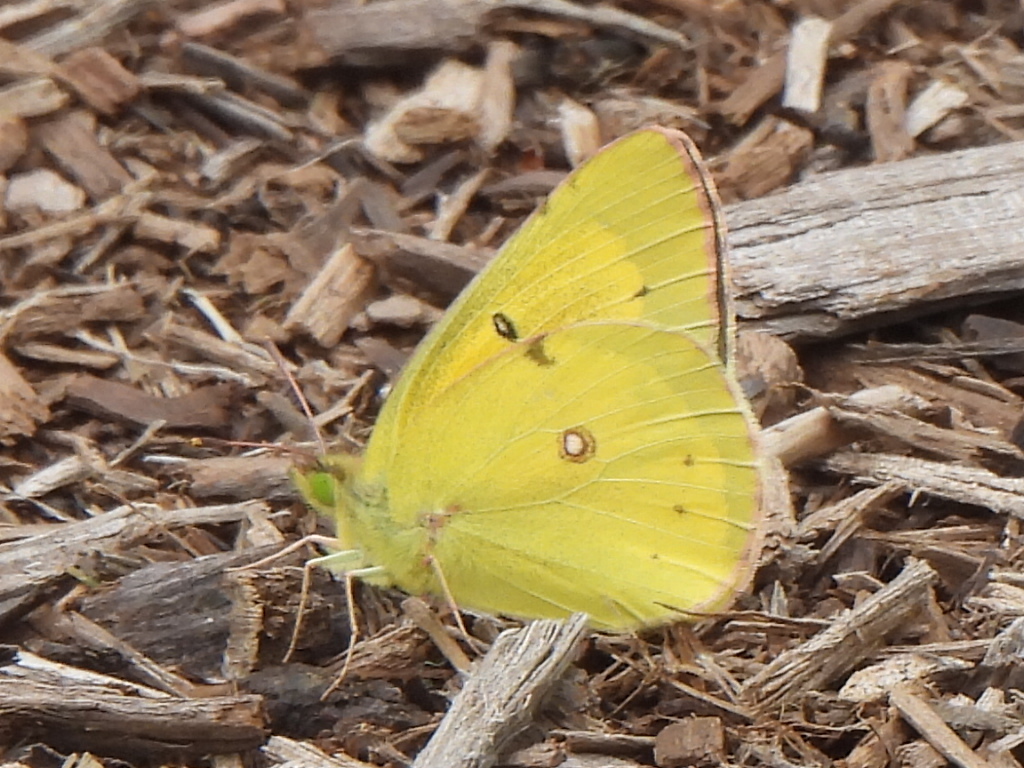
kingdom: Animalia
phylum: Arthropoda
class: Insecta
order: Lepidoptera
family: Pieridae
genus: Colias
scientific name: Colias eurytheme
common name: Alfalfa butterfly
